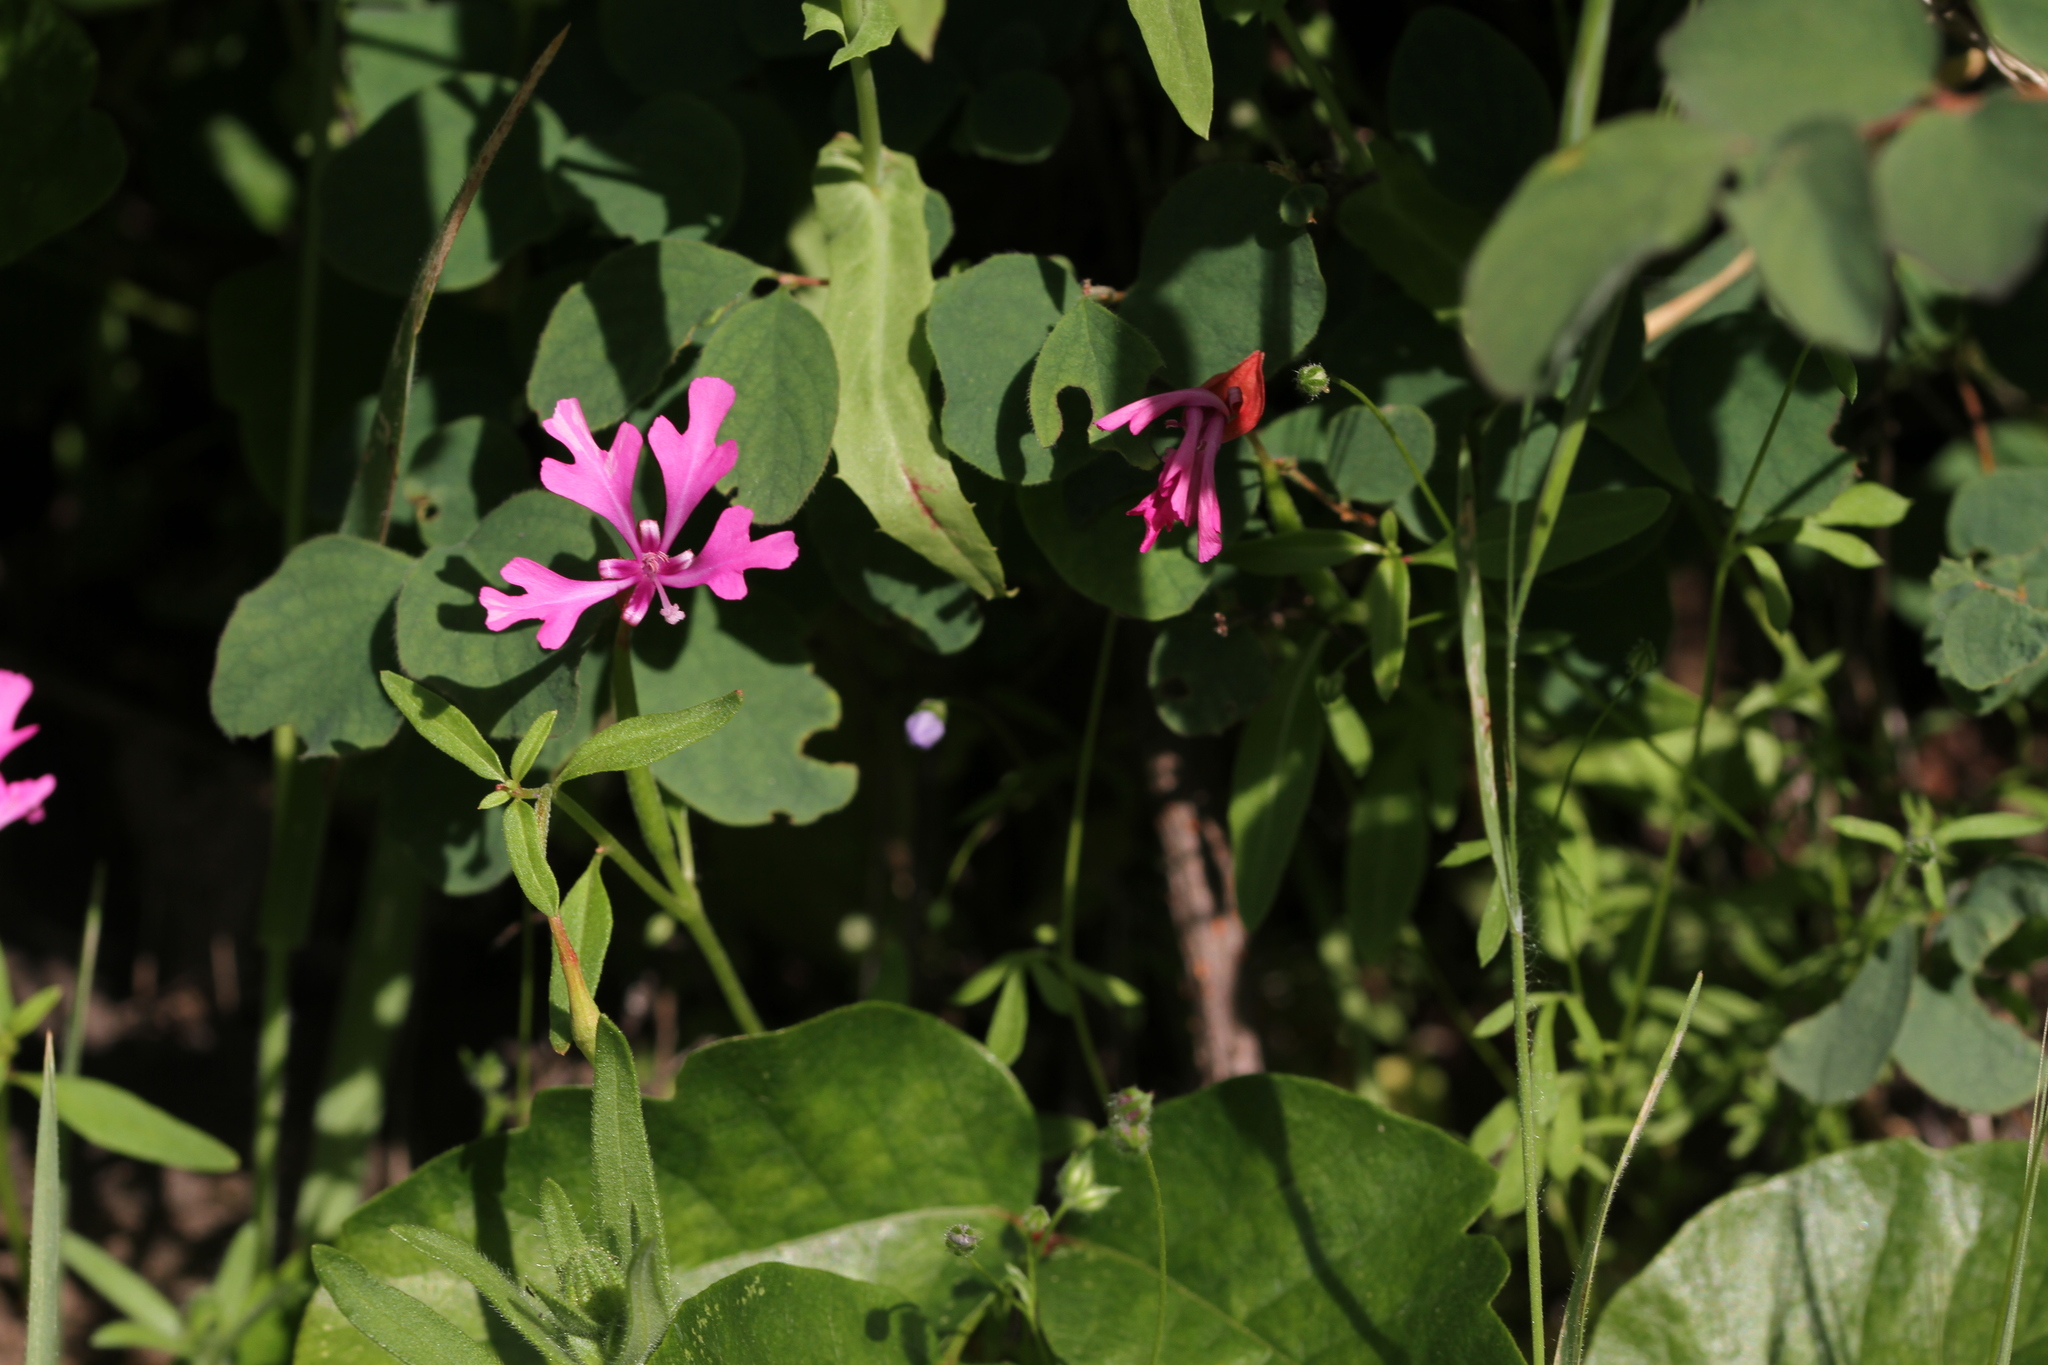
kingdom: Plantae
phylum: Tracheophyta
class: Magnoliopsida
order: Myrtales
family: Onagraceae
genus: Clarkia
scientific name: Clarkia concinna
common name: Red-ribbons
